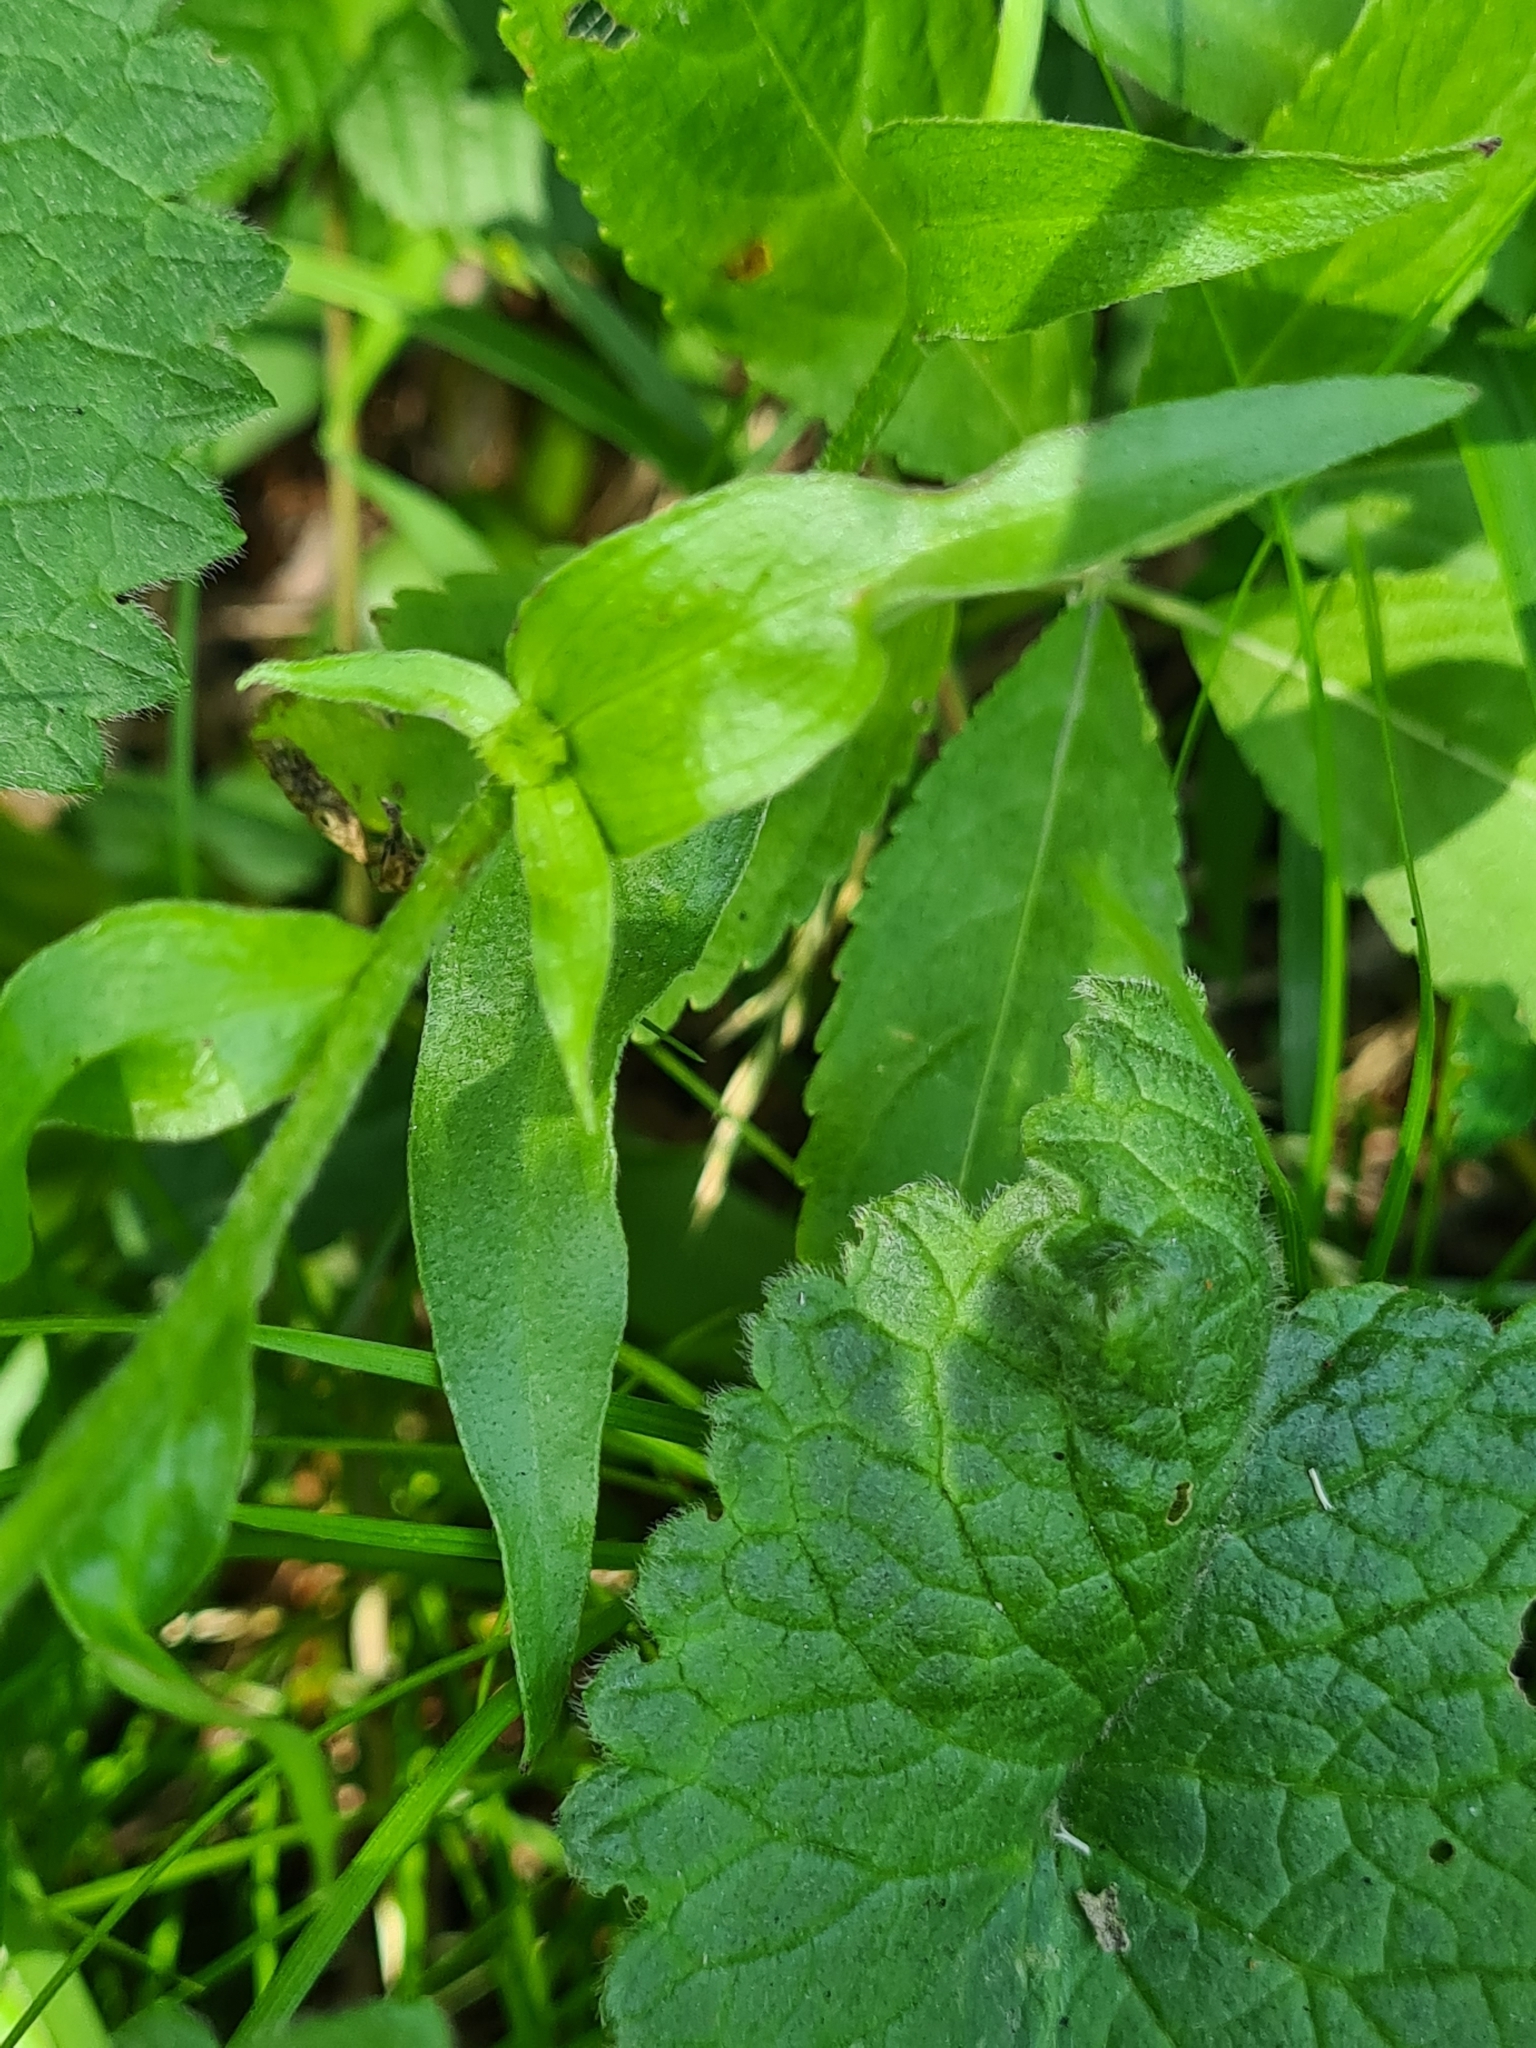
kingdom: Plantae
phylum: Tracheophyta
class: Magnoliopsida
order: Asterales
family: Asteraceae
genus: Buphthalmum
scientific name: Buphthalmum salicifolium
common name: Willow-leaved yellow-oxeye
